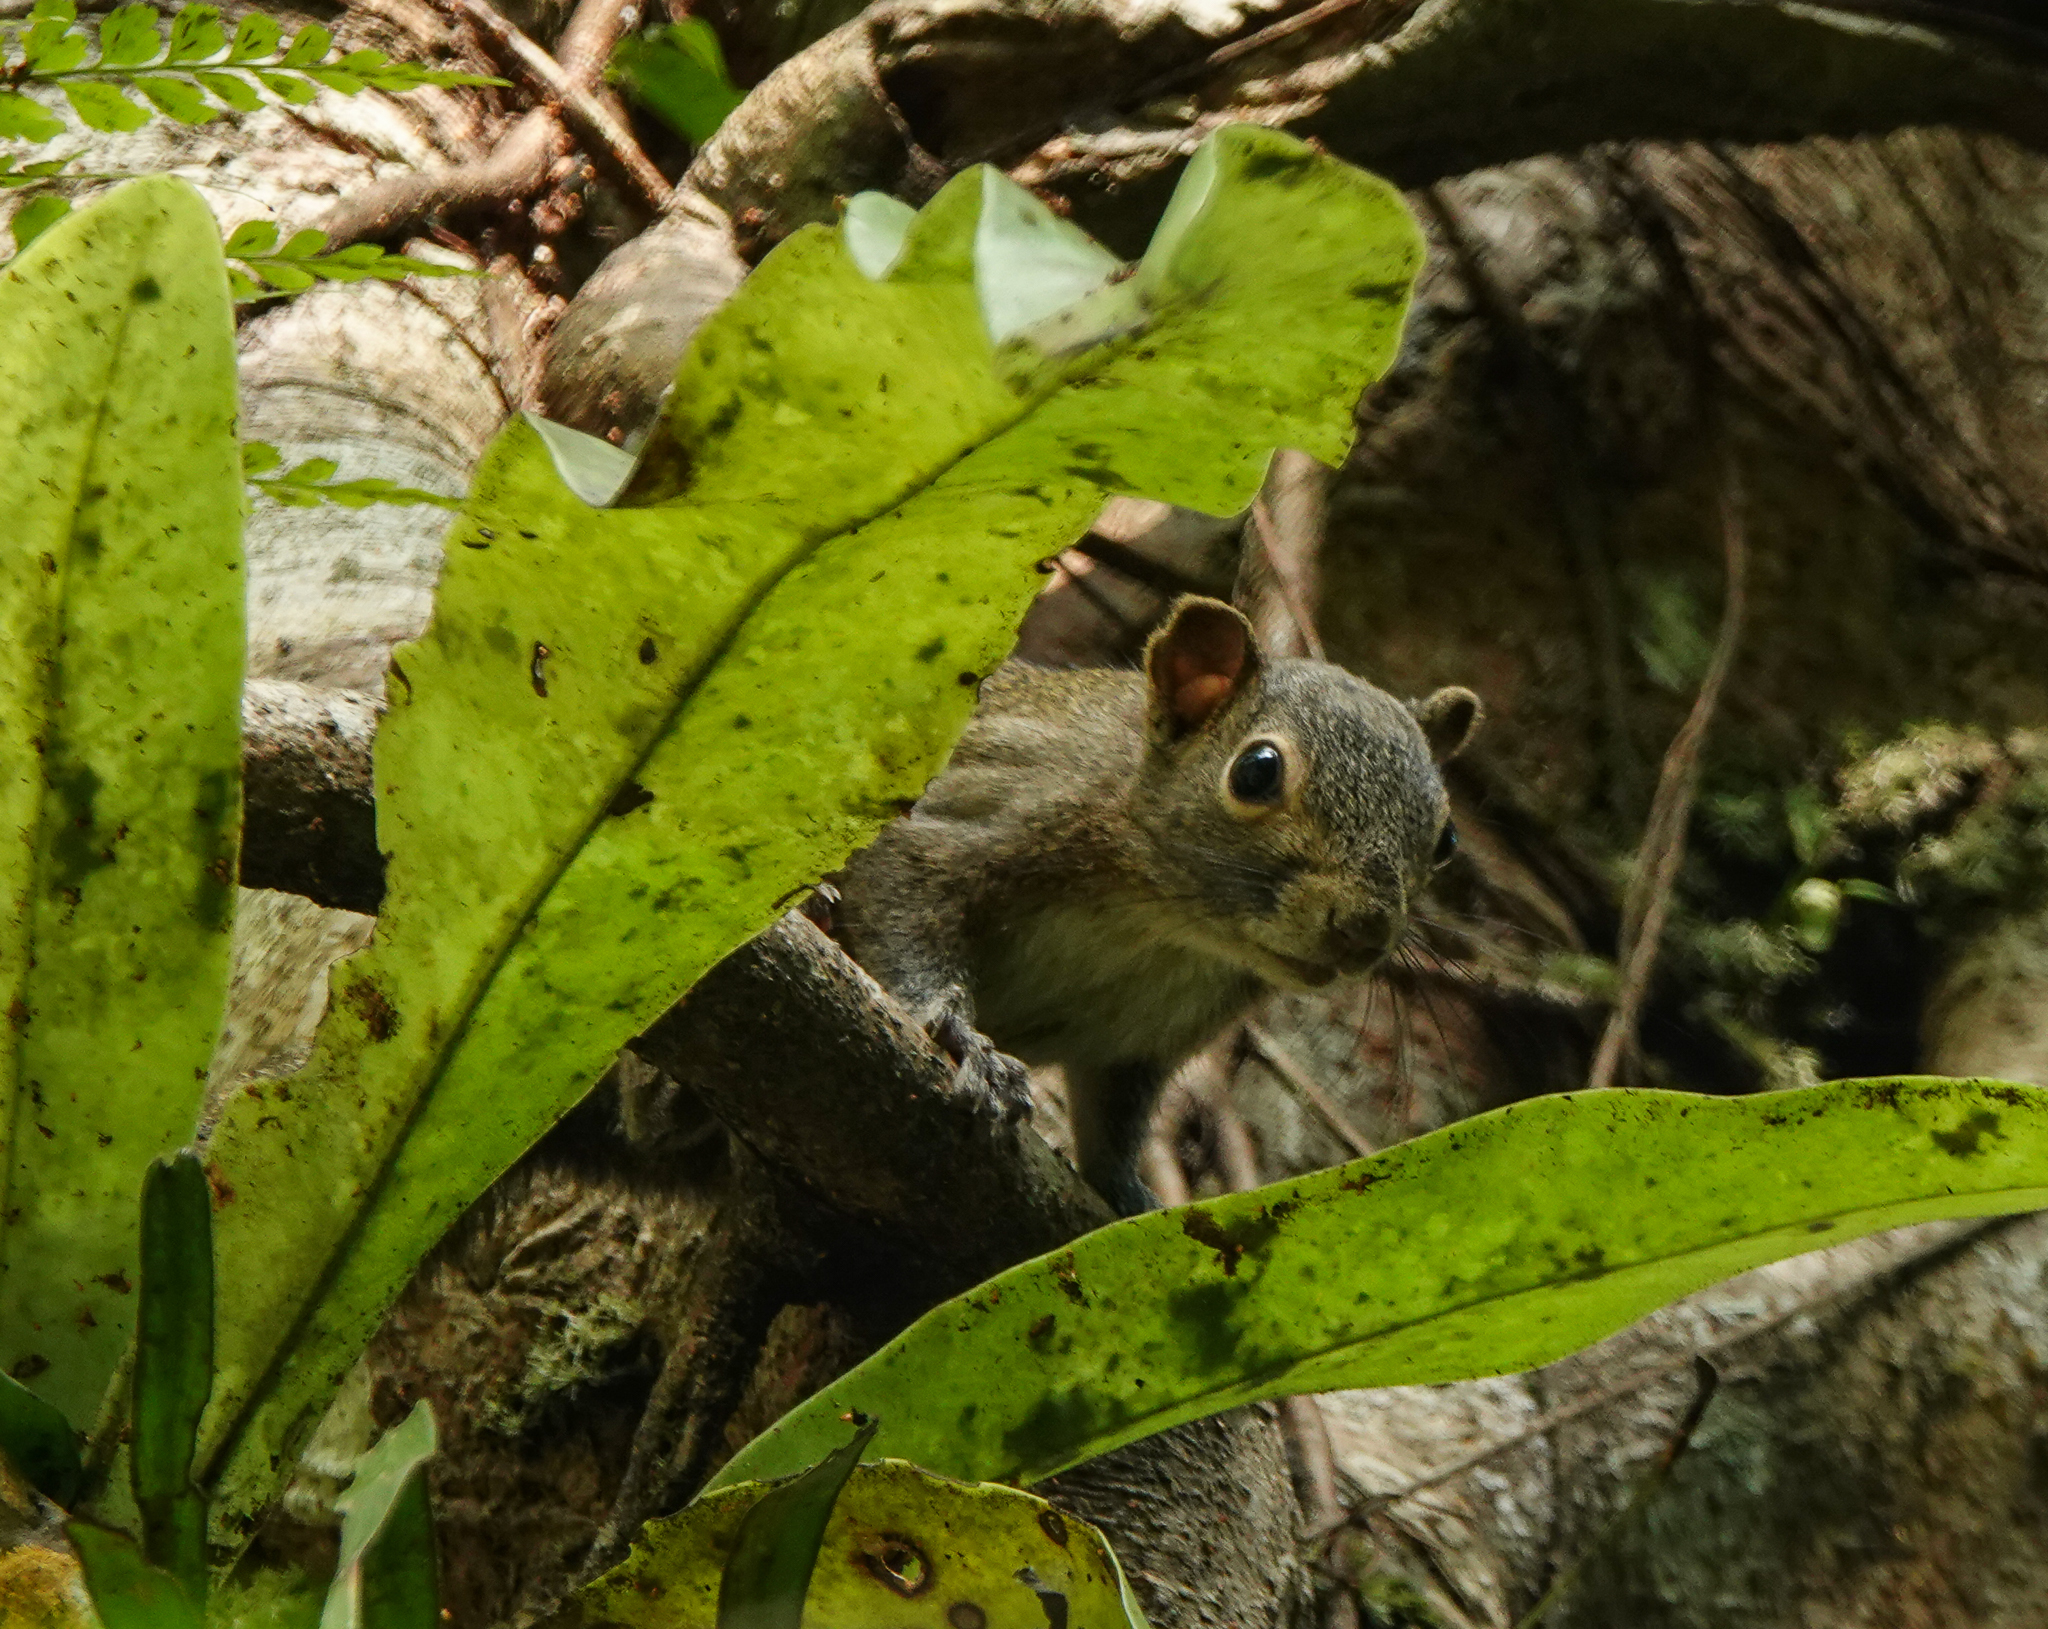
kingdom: Animalia
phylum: Chordata
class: Mammalia
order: Rodentia
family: Sciuridae
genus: Callosciurus
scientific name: Callosciurus pygerythrus
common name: Irrawaddy squirrel
